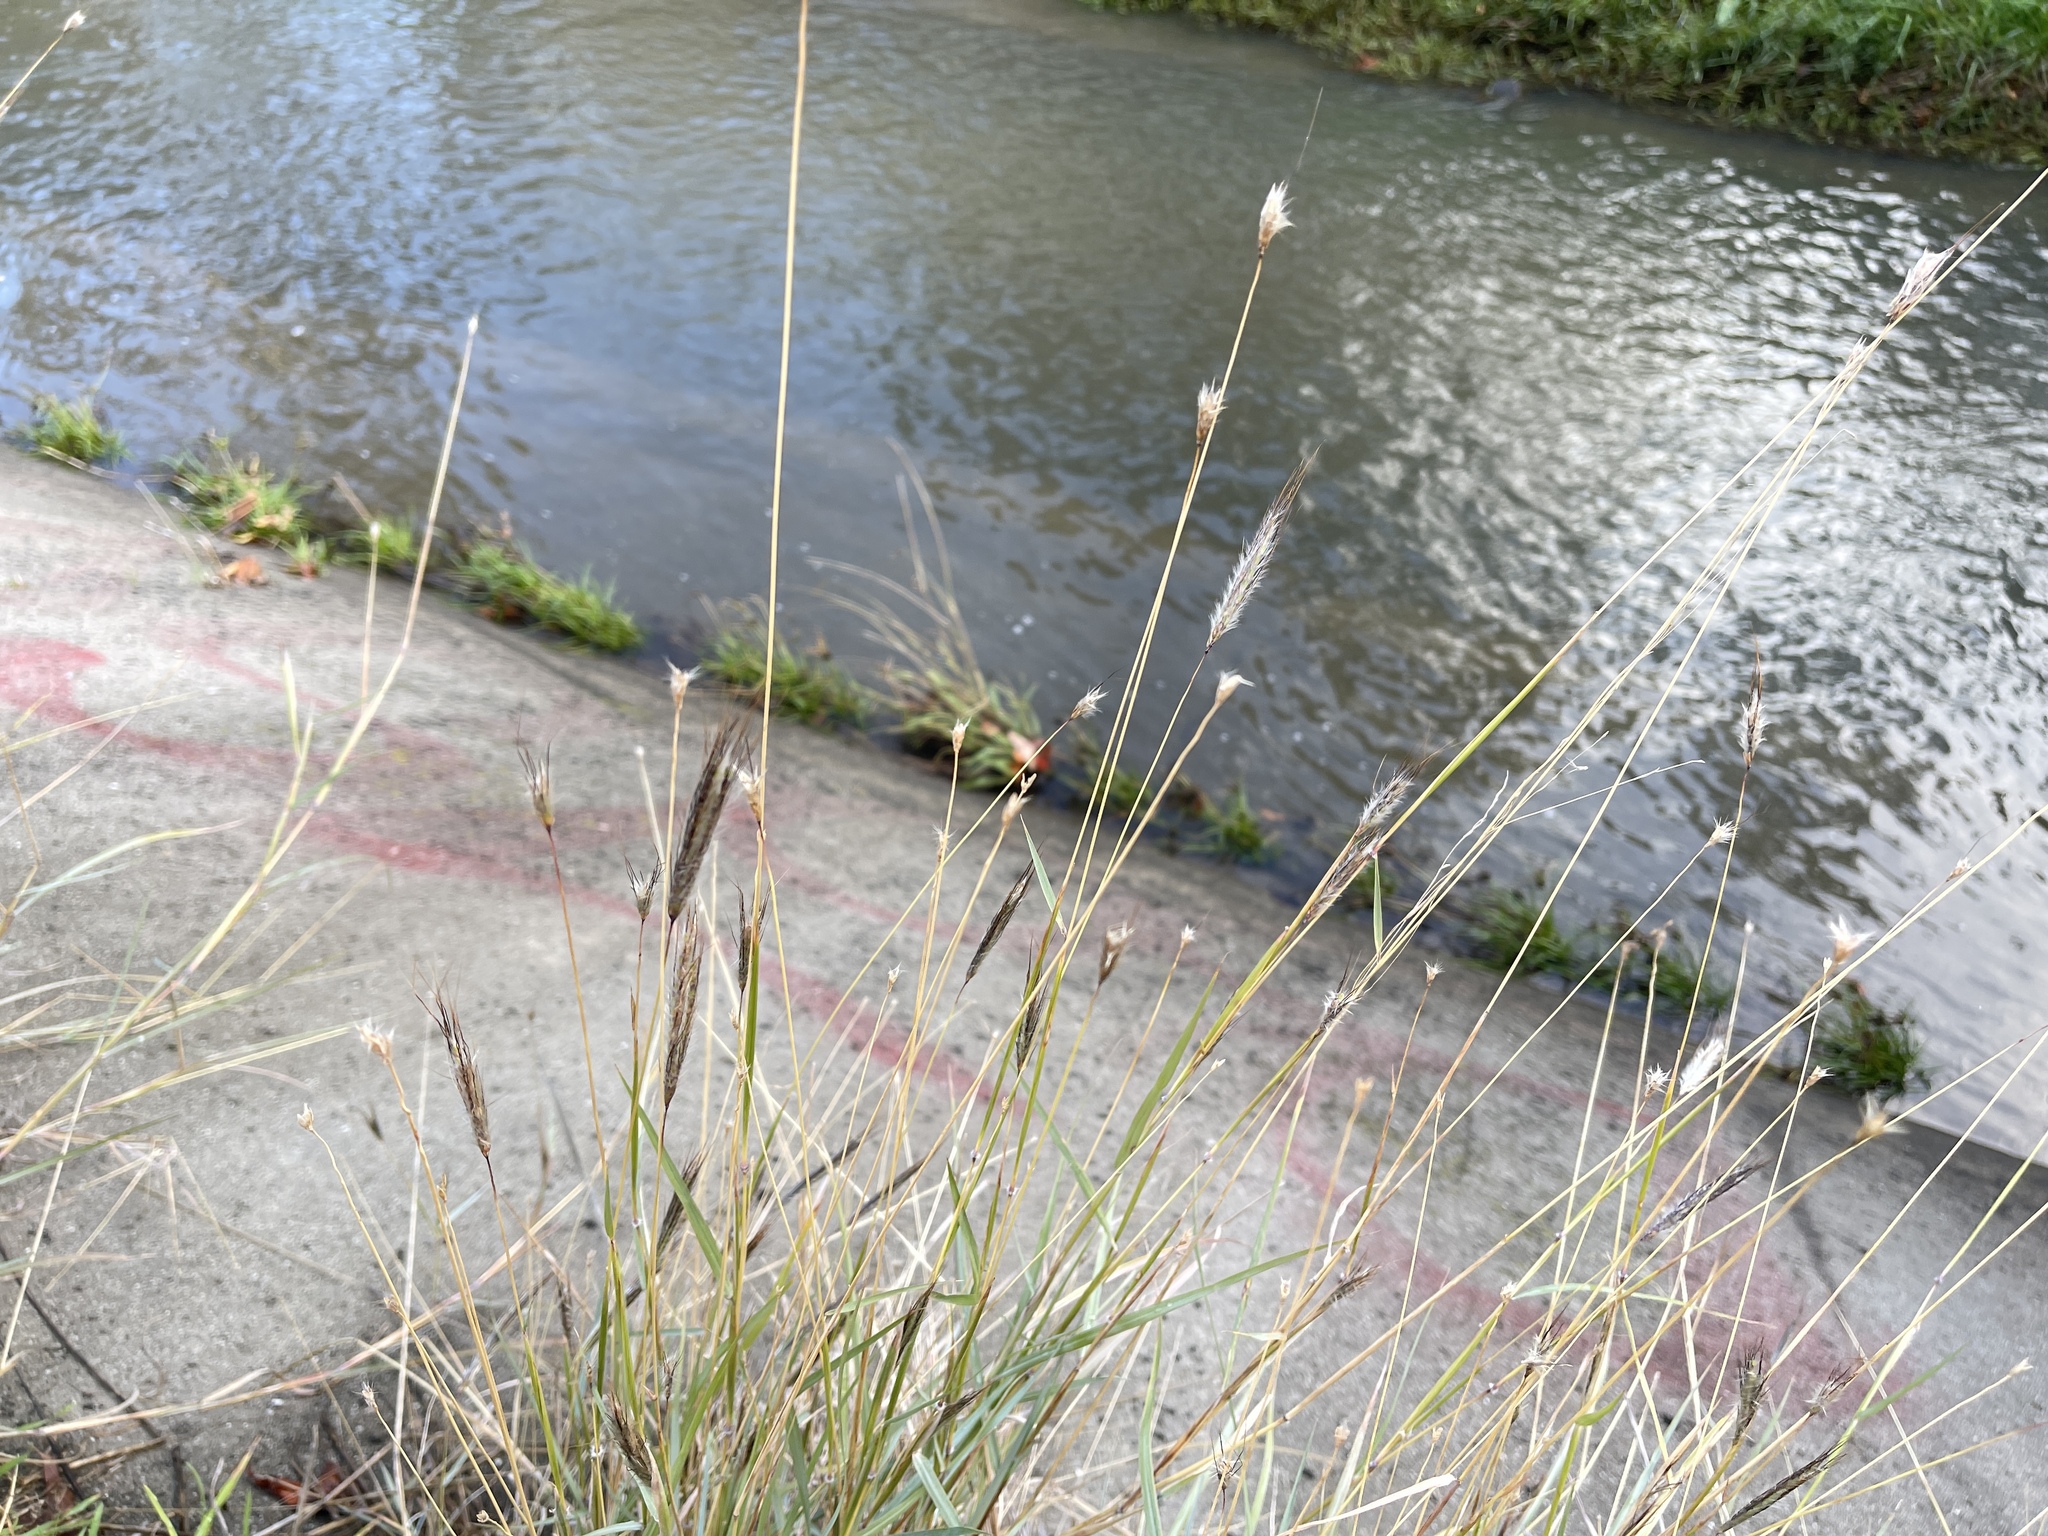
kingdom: Plantae
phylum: Tracheophyta
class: Liliopsida
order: Poales
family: Poaceae
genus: Dichanthium
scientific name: Dichanthium sericeum
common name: Silky bluestem
